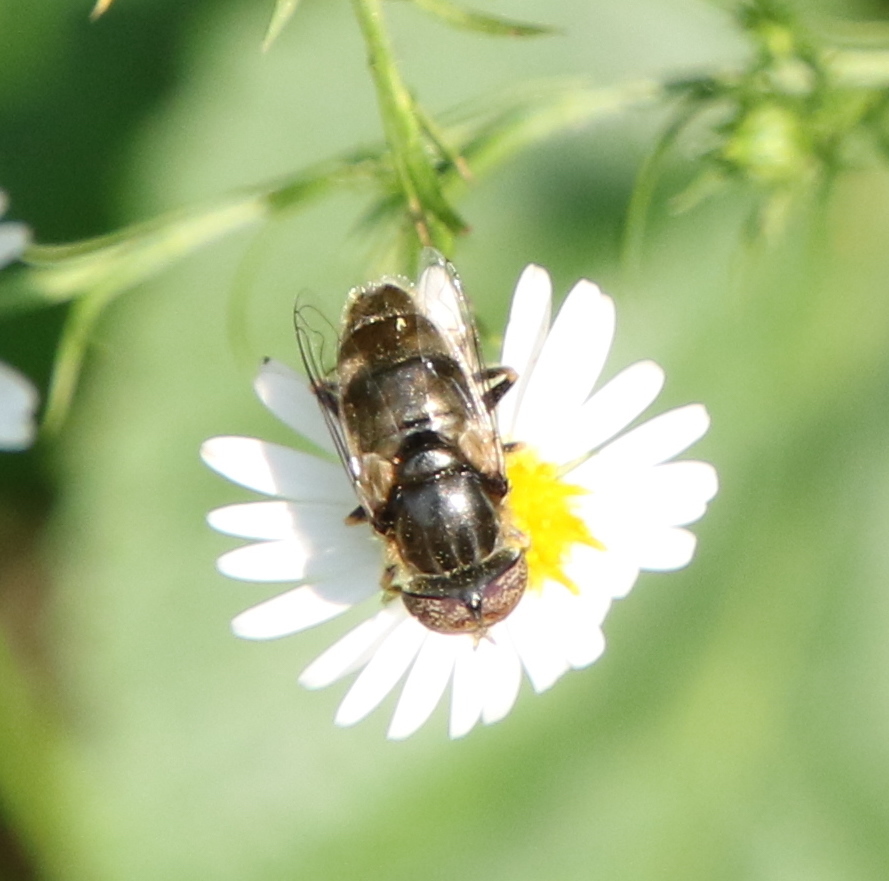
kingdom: Animalia
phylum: Arthropoda
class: Insecta
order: Diptera
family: Syrphidae
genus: Eristalinus
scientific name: Eristalinus aeneus
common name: Syrphid fly
